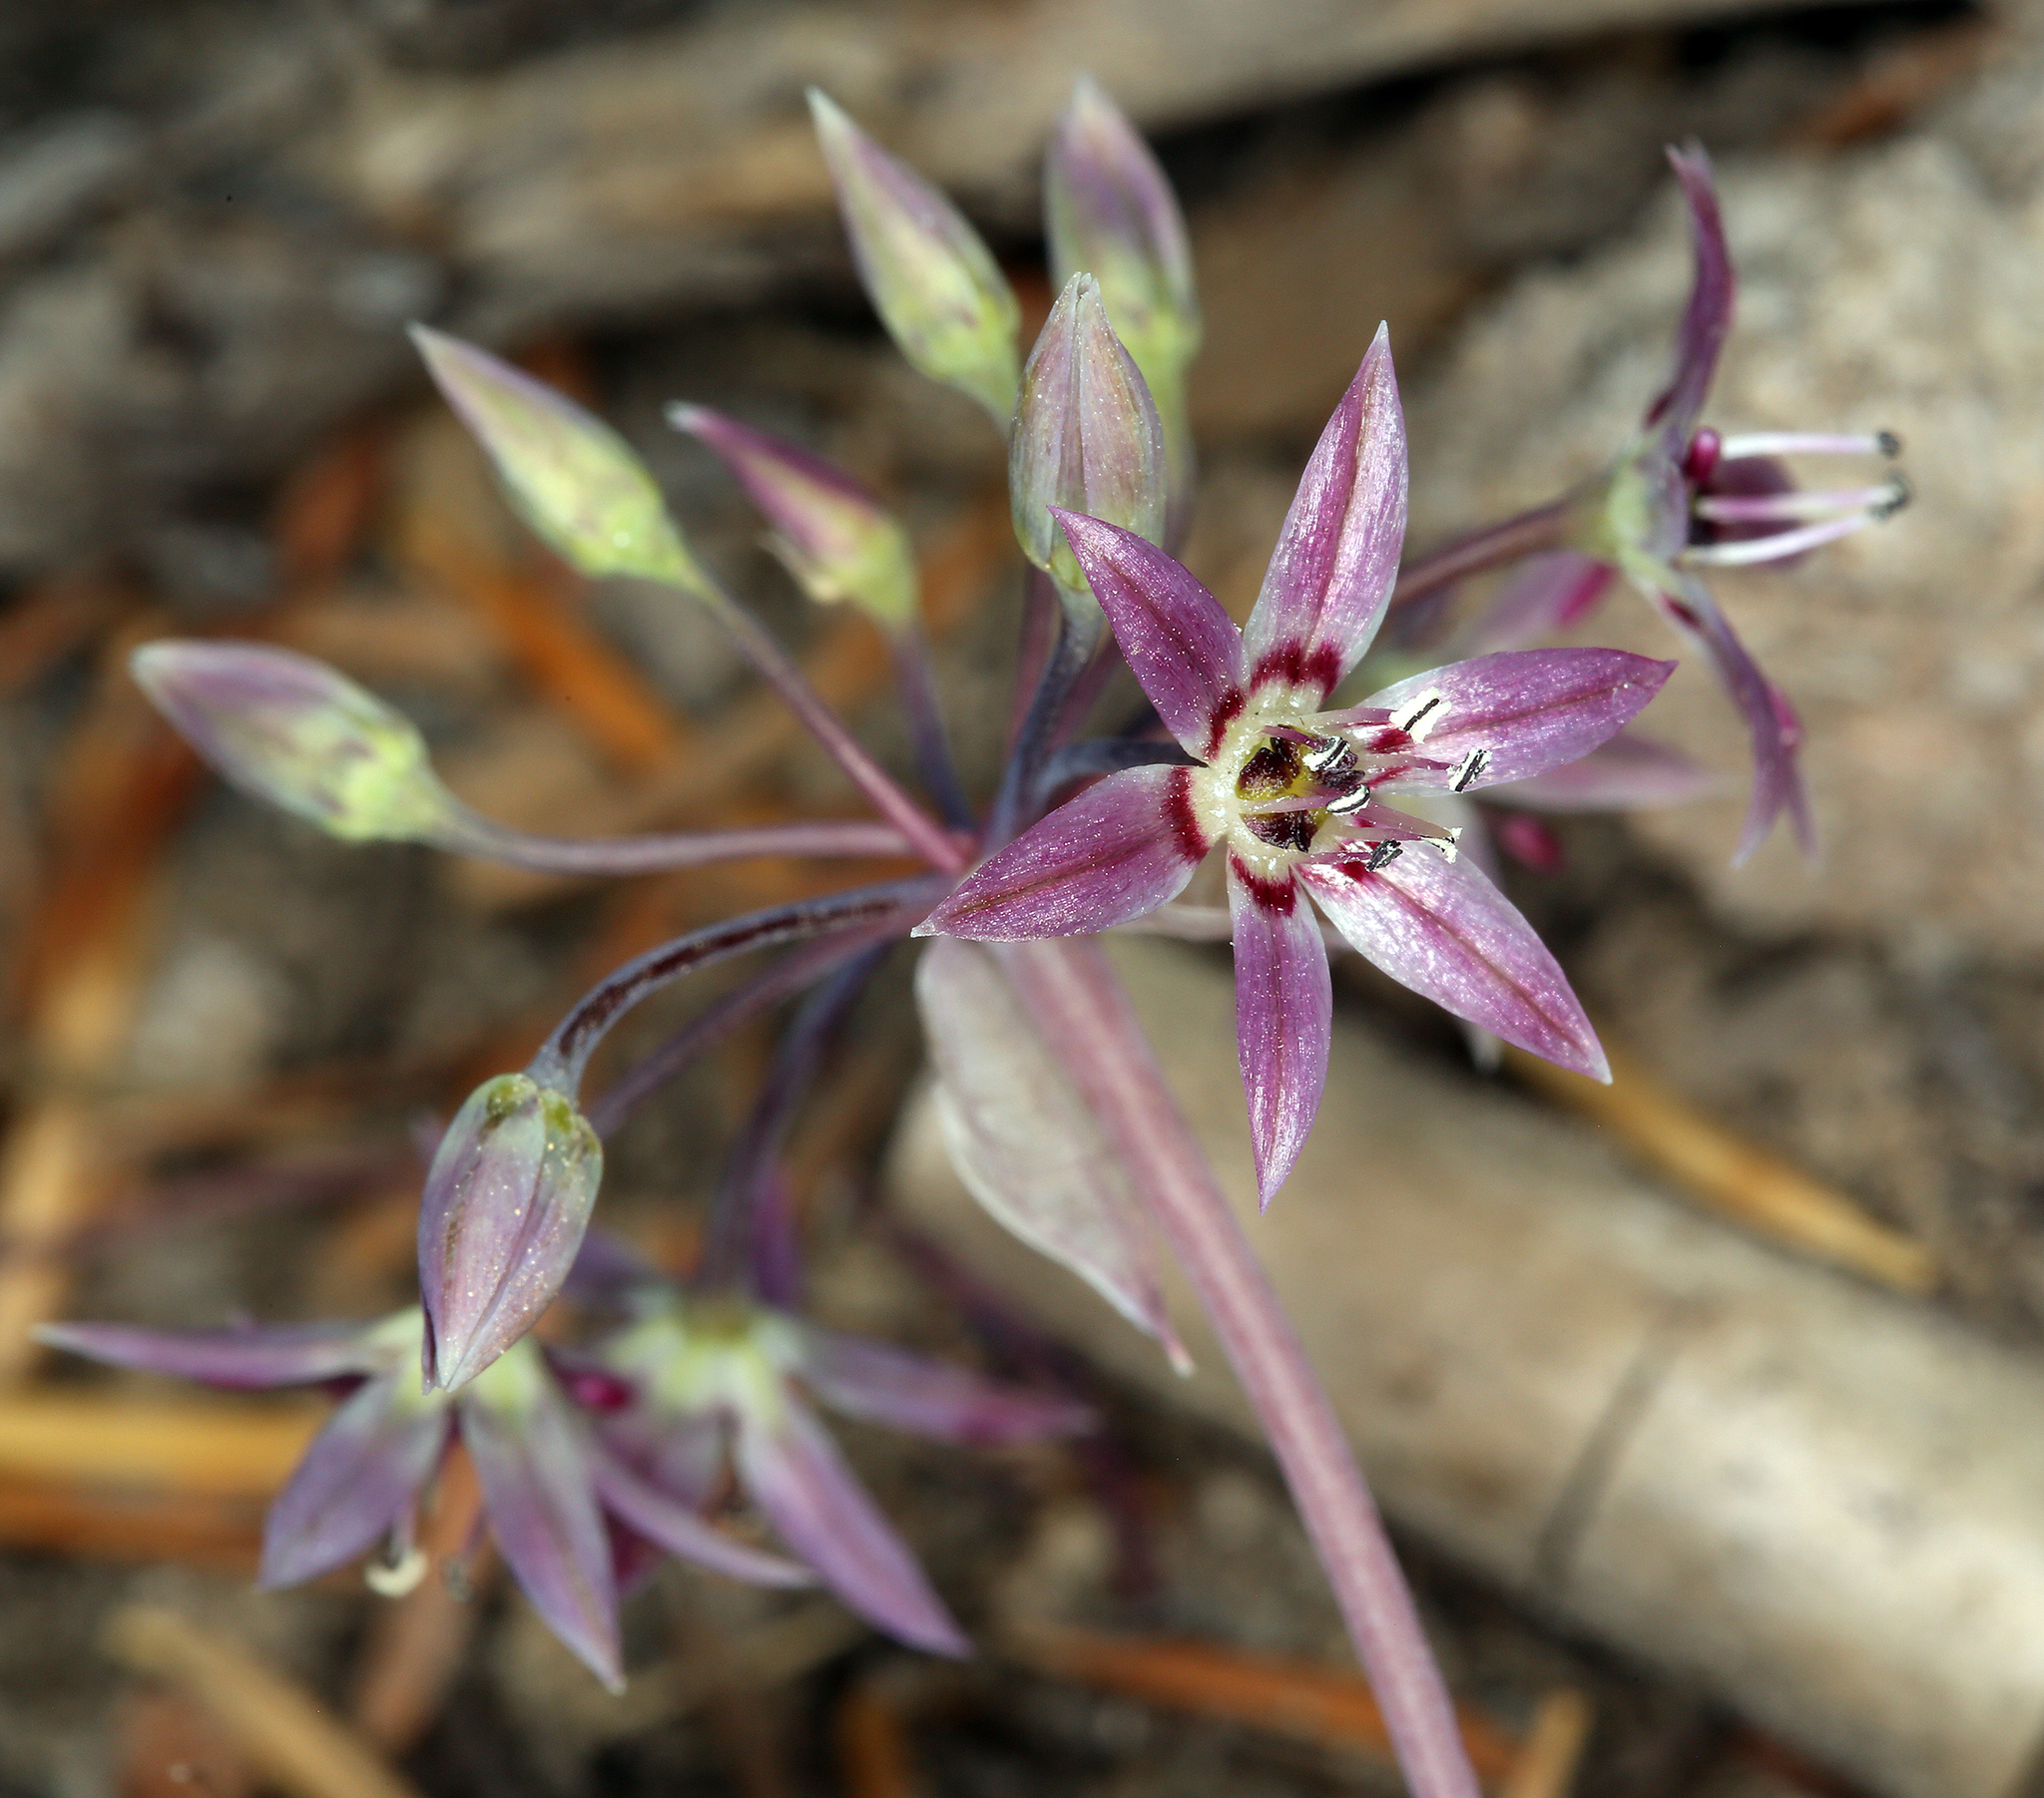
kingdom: Plantae
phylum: Tracheophyta
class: Liliopsida
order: Asparagales
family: Amaryllidaceae
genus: Allium
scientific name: Allium campanulatum
